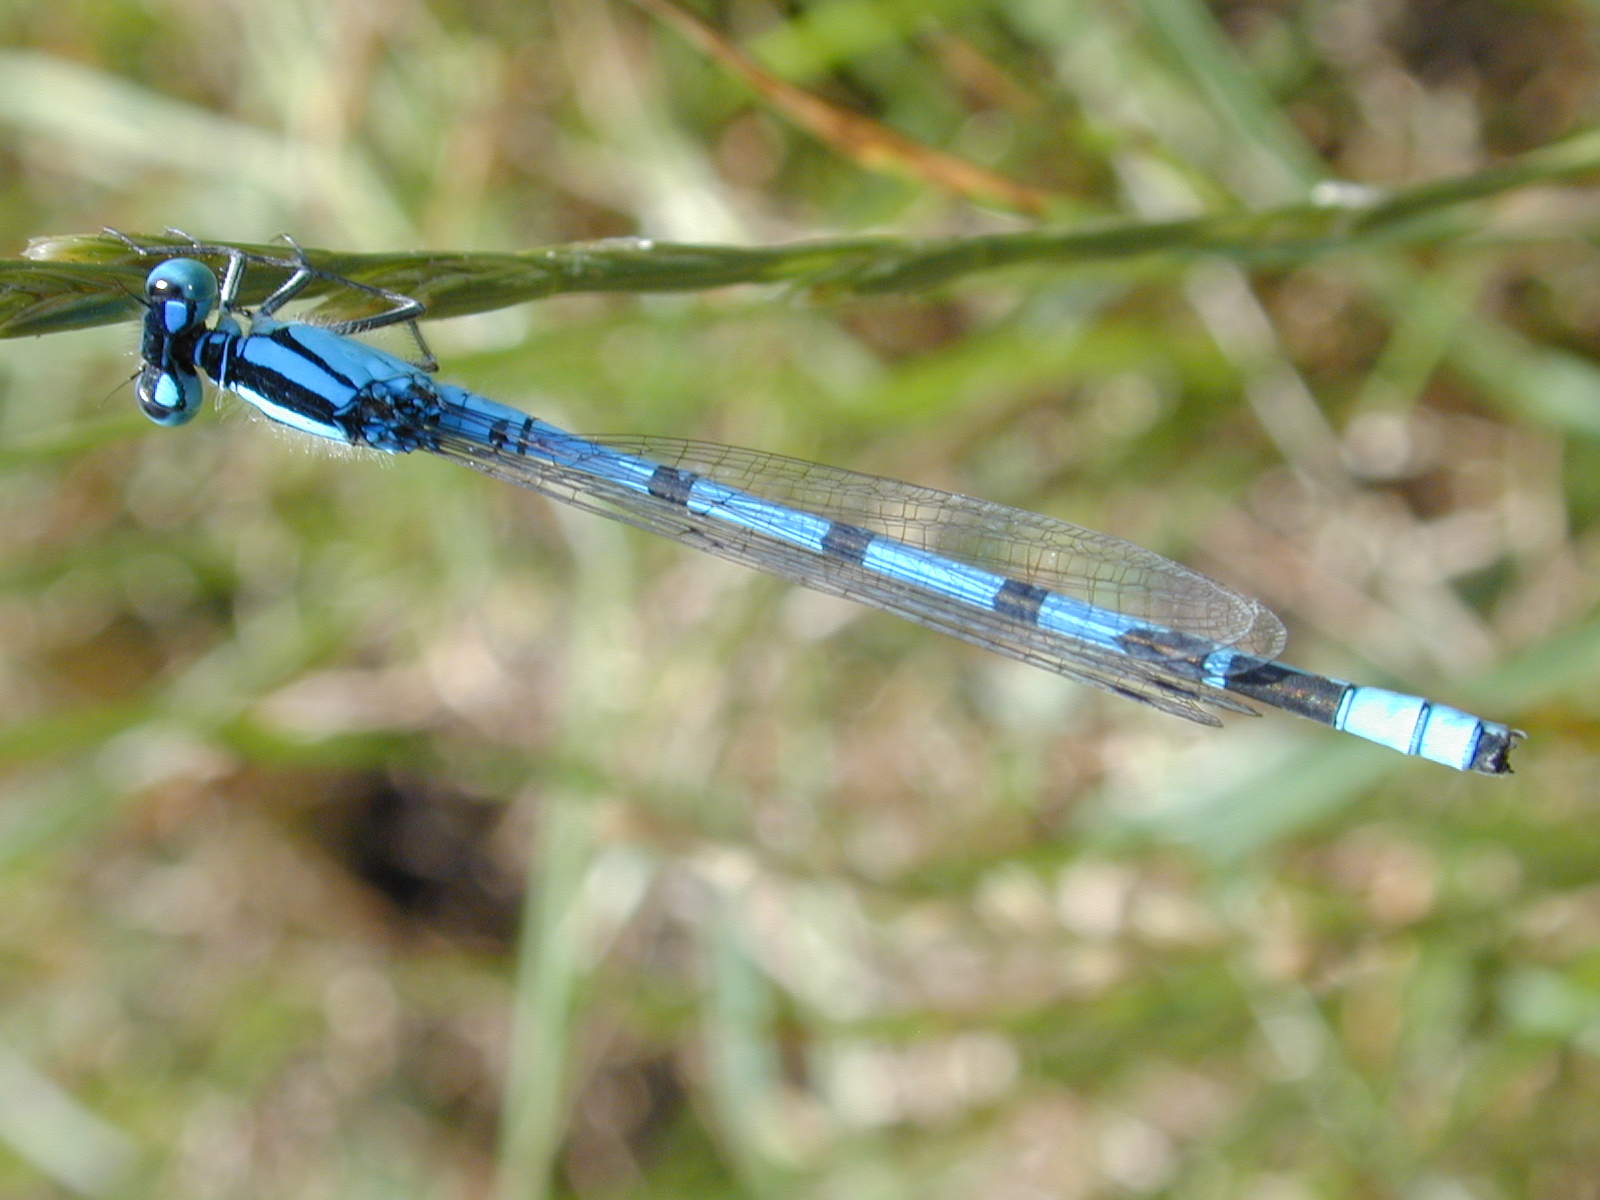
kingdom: Animalia
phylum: Arthropoda
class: Insecta
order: Odonata
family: Coenagrionidae
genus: Enallagma
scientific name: Enallagma cyathigerum
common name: Common blue damselfly
